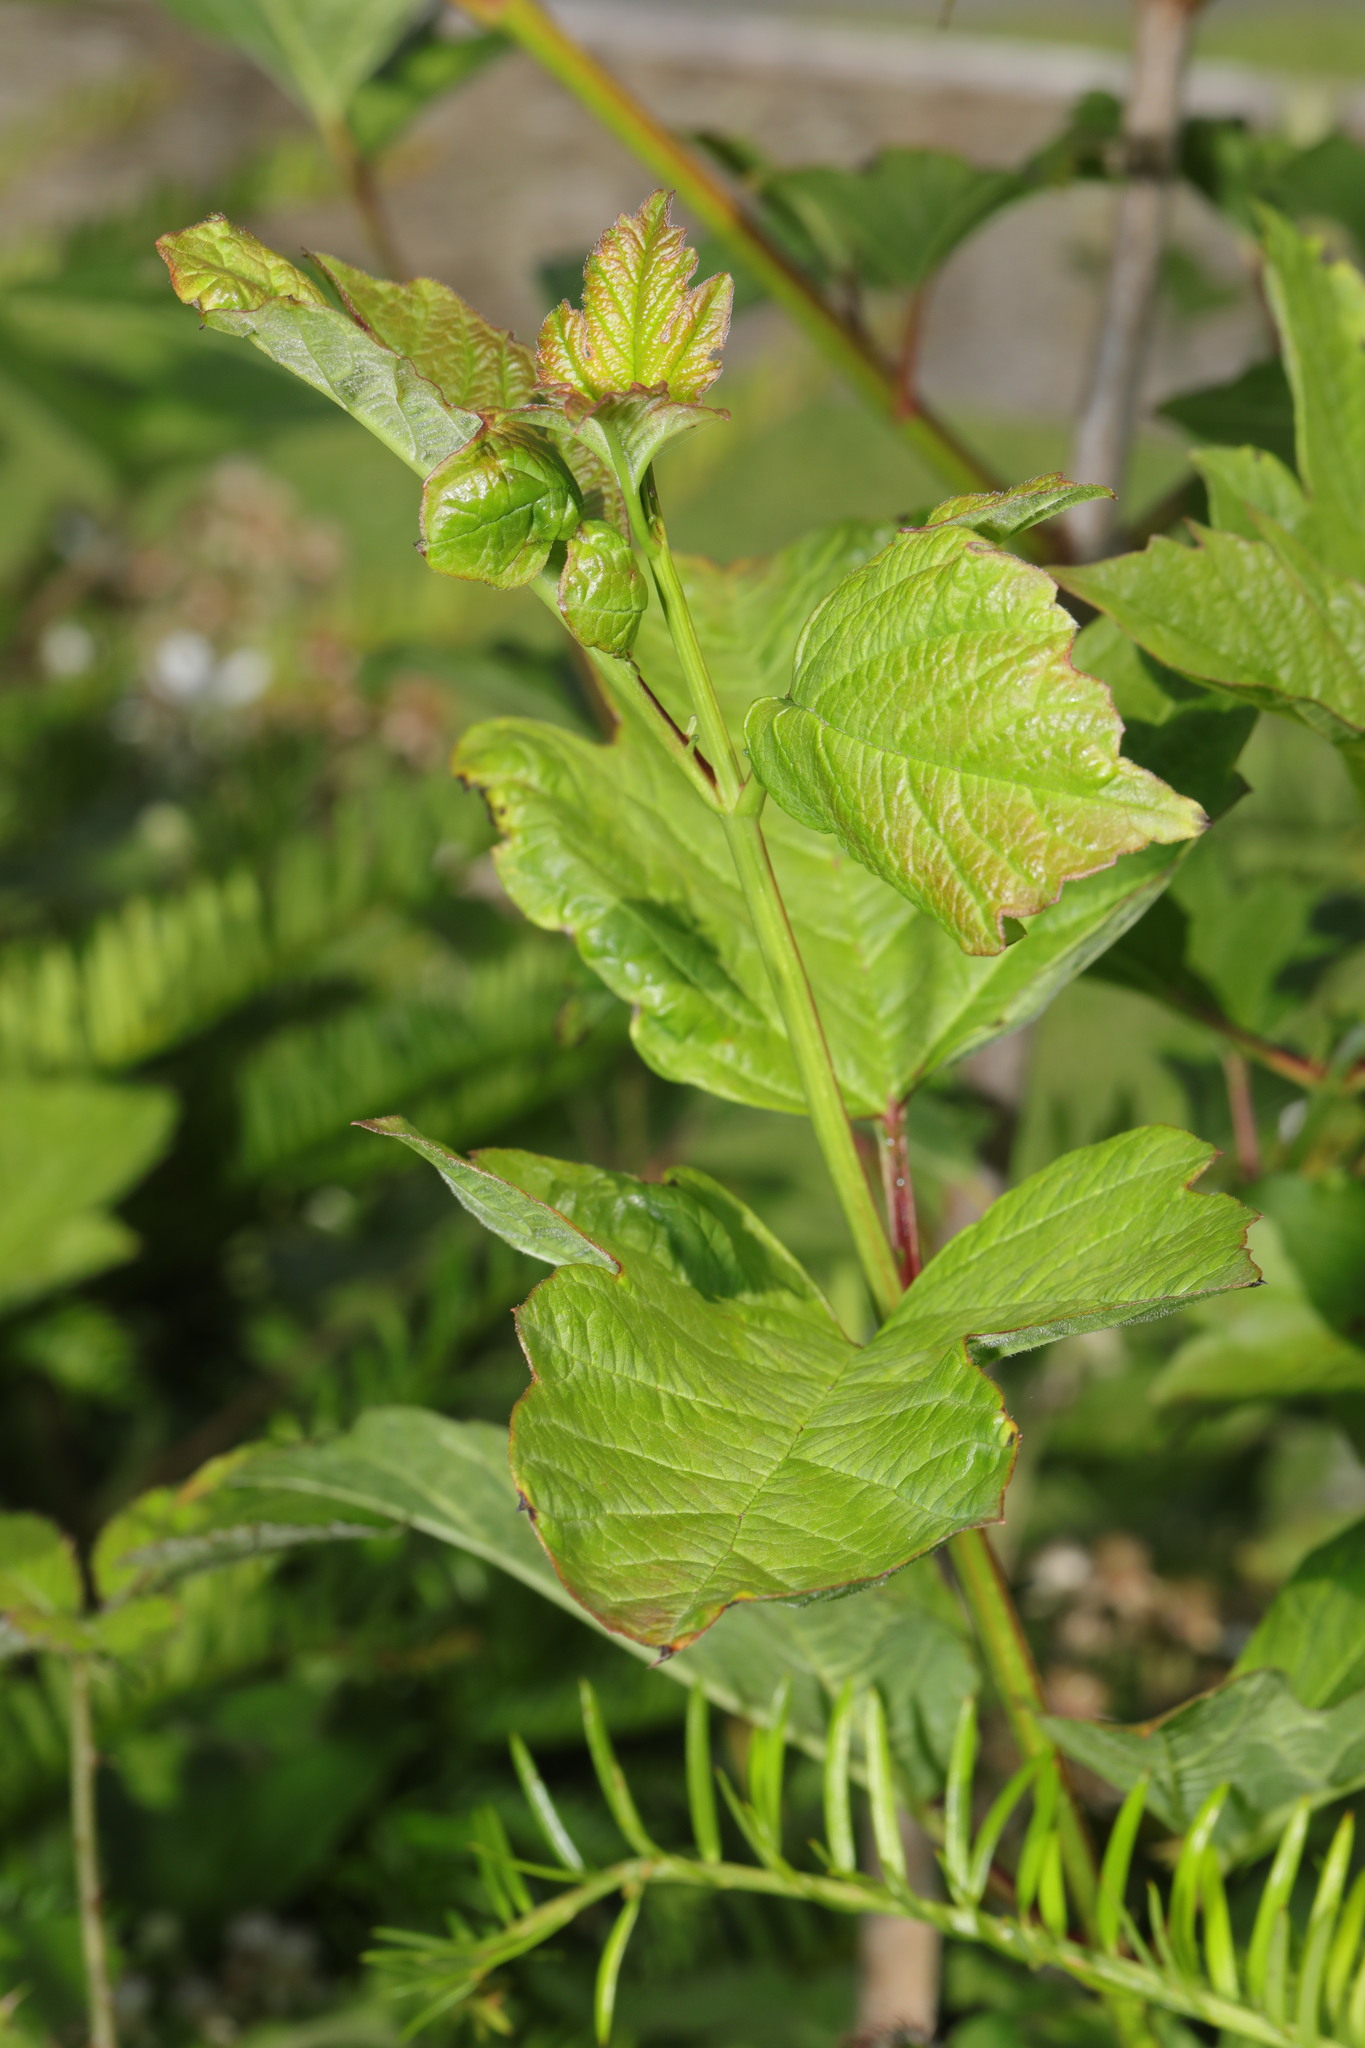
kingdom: Plantae
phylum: Tracheophyta
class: Magnoliopsida
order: Dipsacales
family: Viburnaceae
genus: Viburnum
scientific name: Viburnum opulus
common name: Guelder-rose
